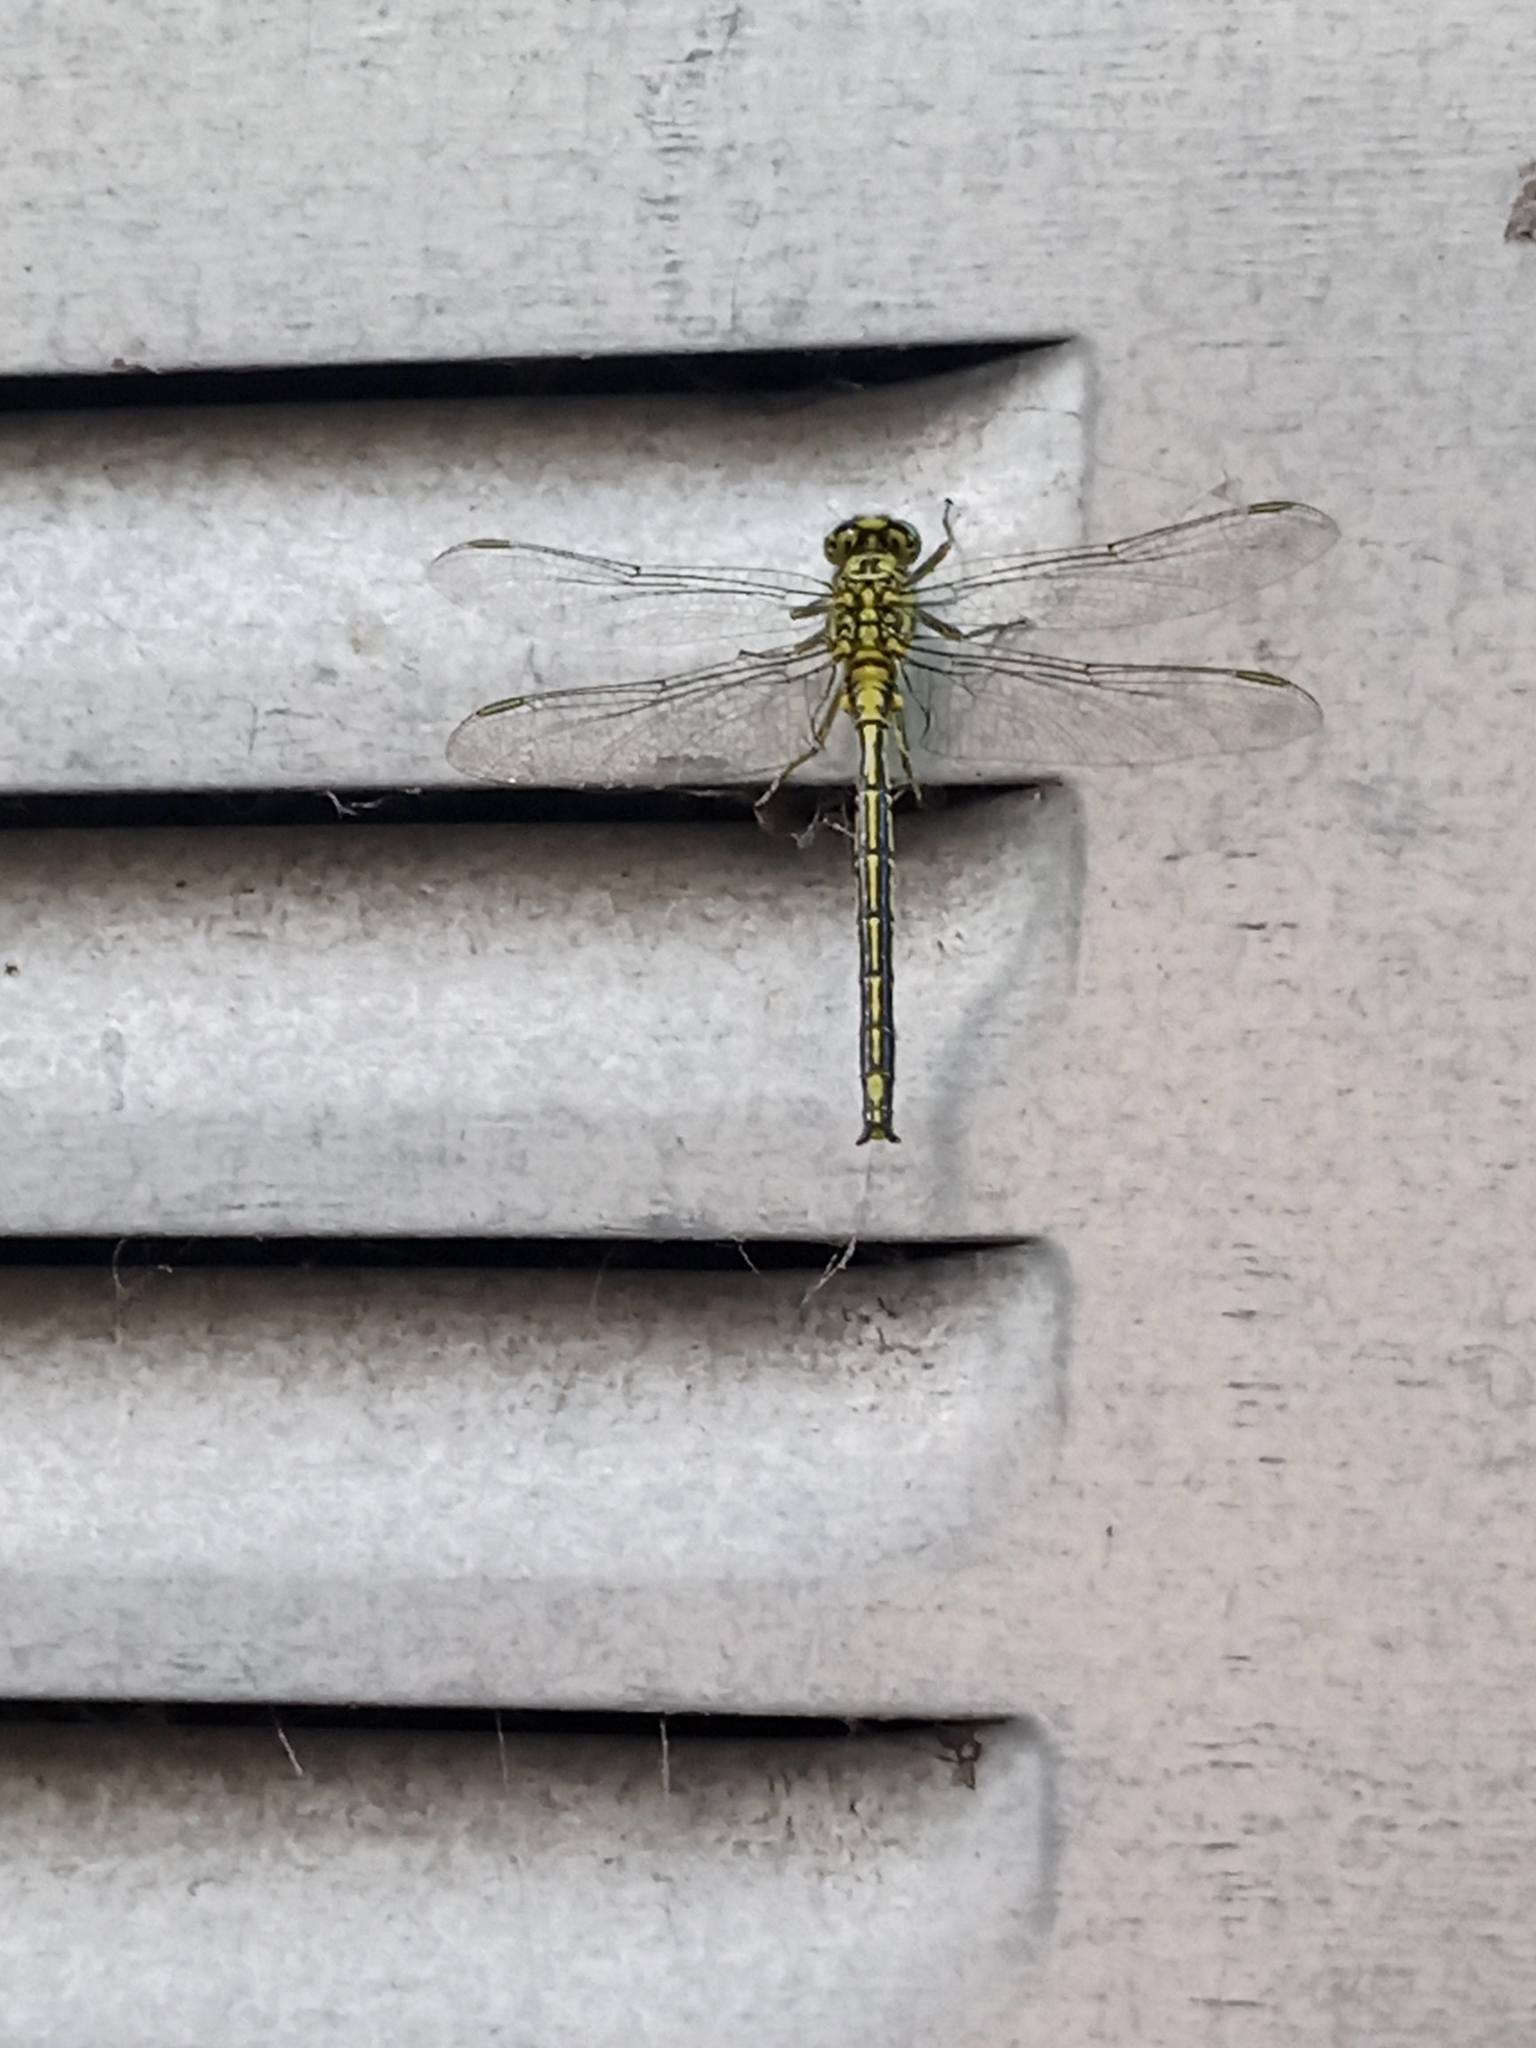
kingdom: Animalia
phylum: Arthropoda
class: Insecta
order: Odonata
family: Gomphidae
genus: Gomphus
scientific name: Gomphus pulchellus
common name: Western clubtail
